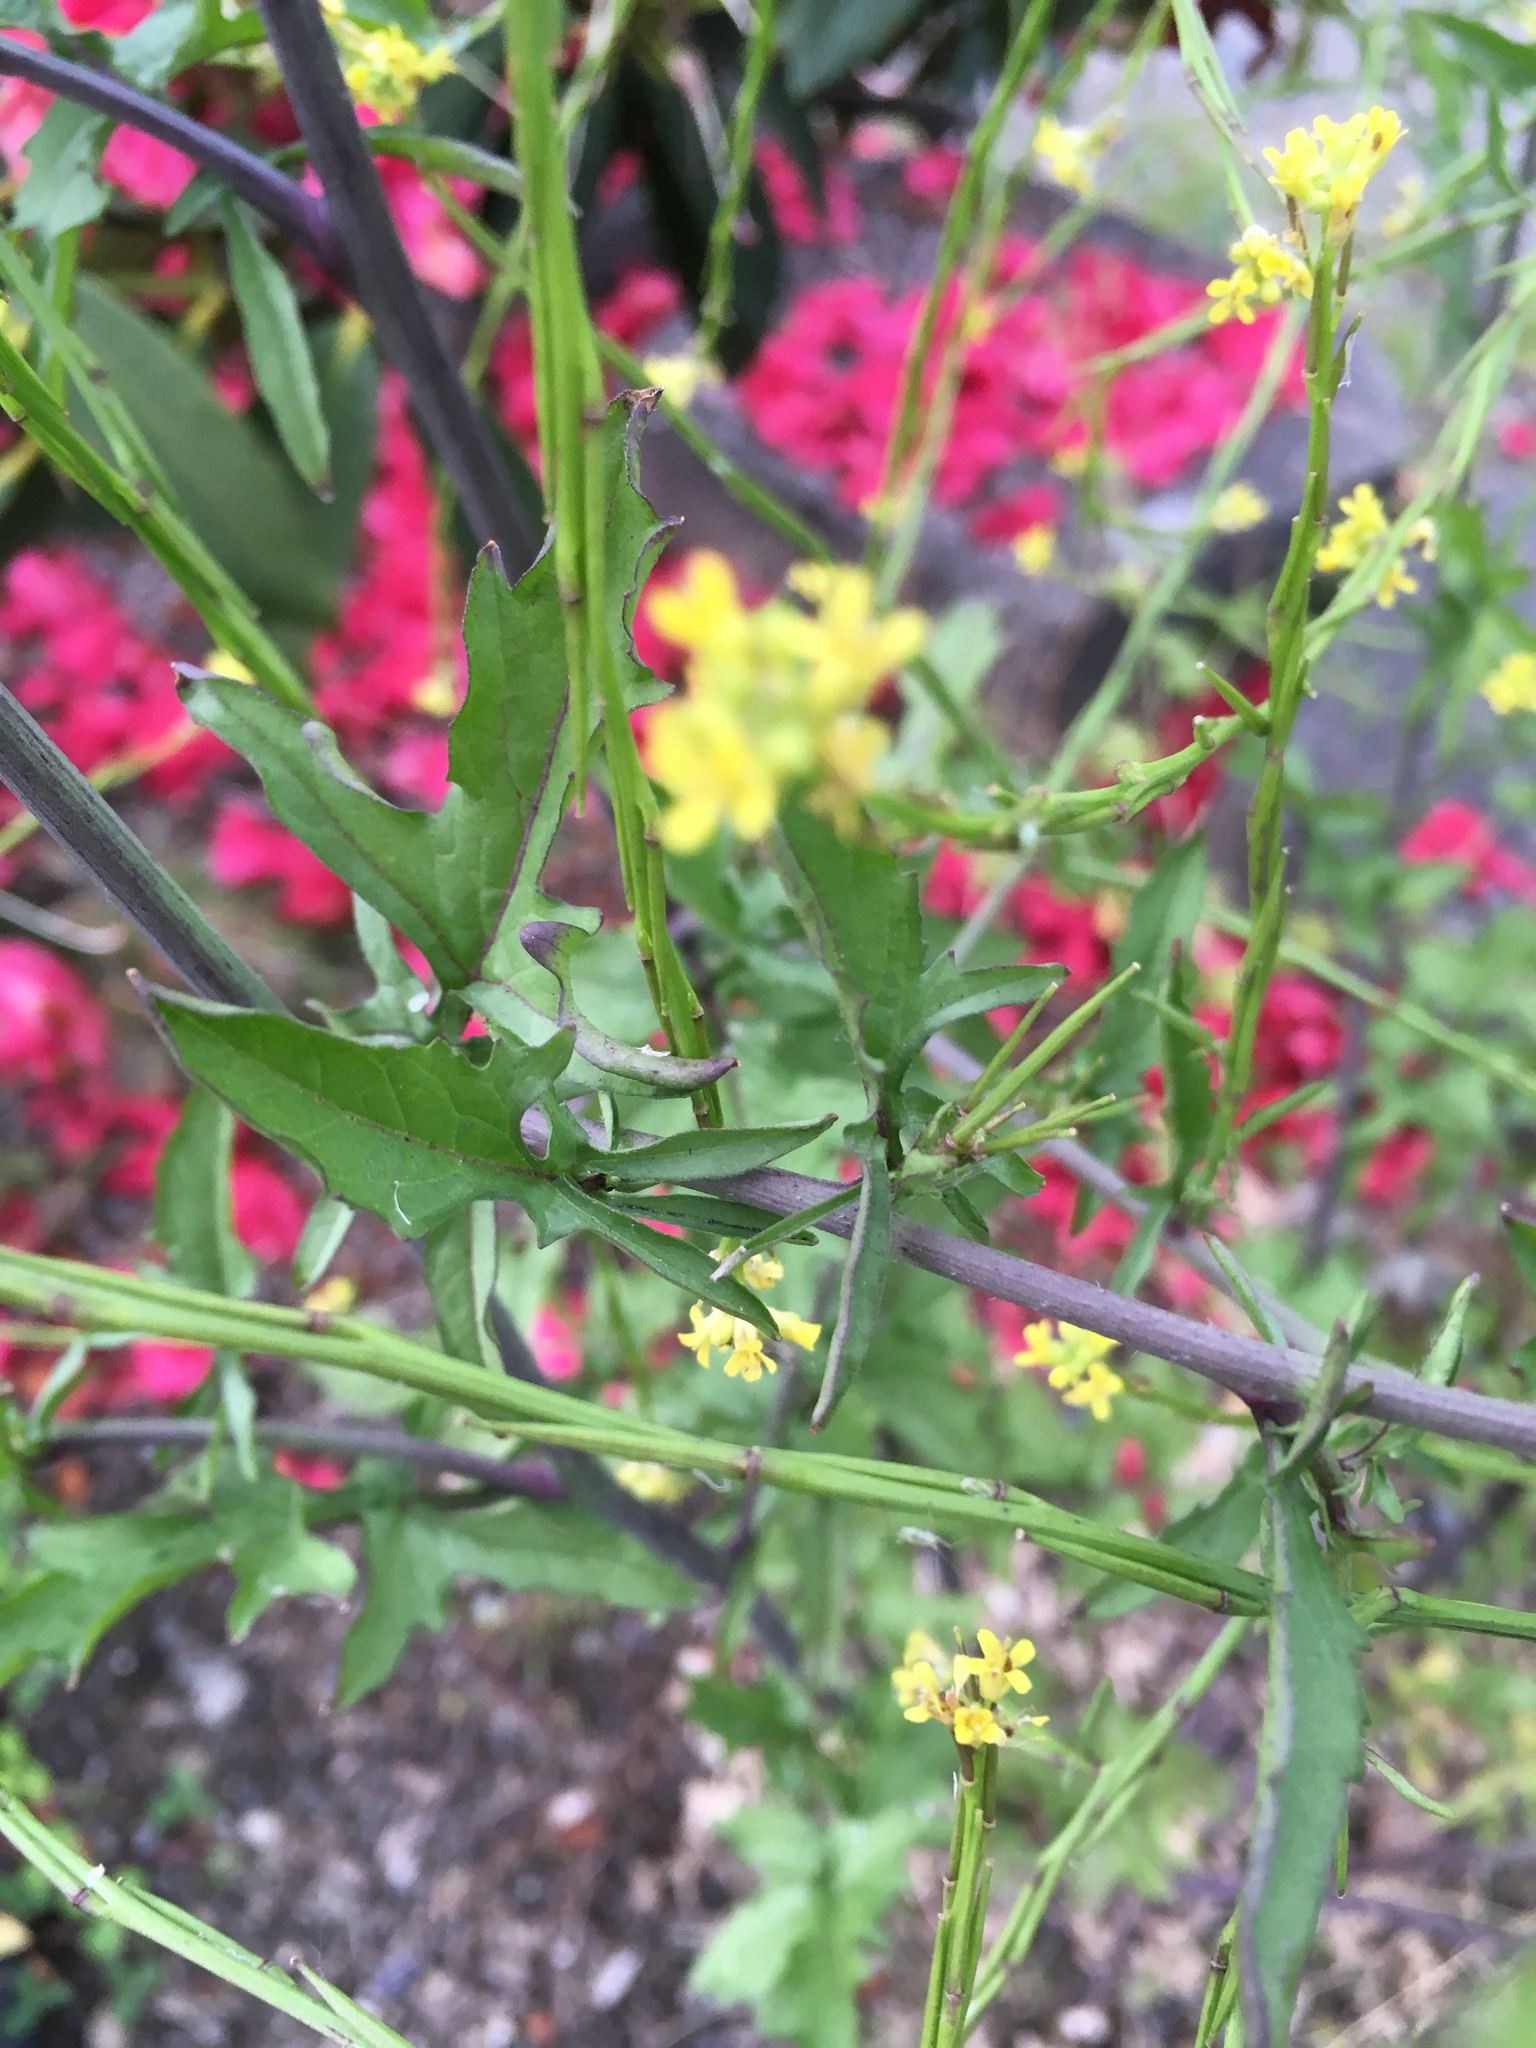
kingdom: Plantae
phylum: Tracheophyta
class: Magnoliopsida
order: Brassicales
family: Brassicaceae
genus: Sisymbrium
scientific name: Sisymbrium officinale
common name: Hedge mustard
